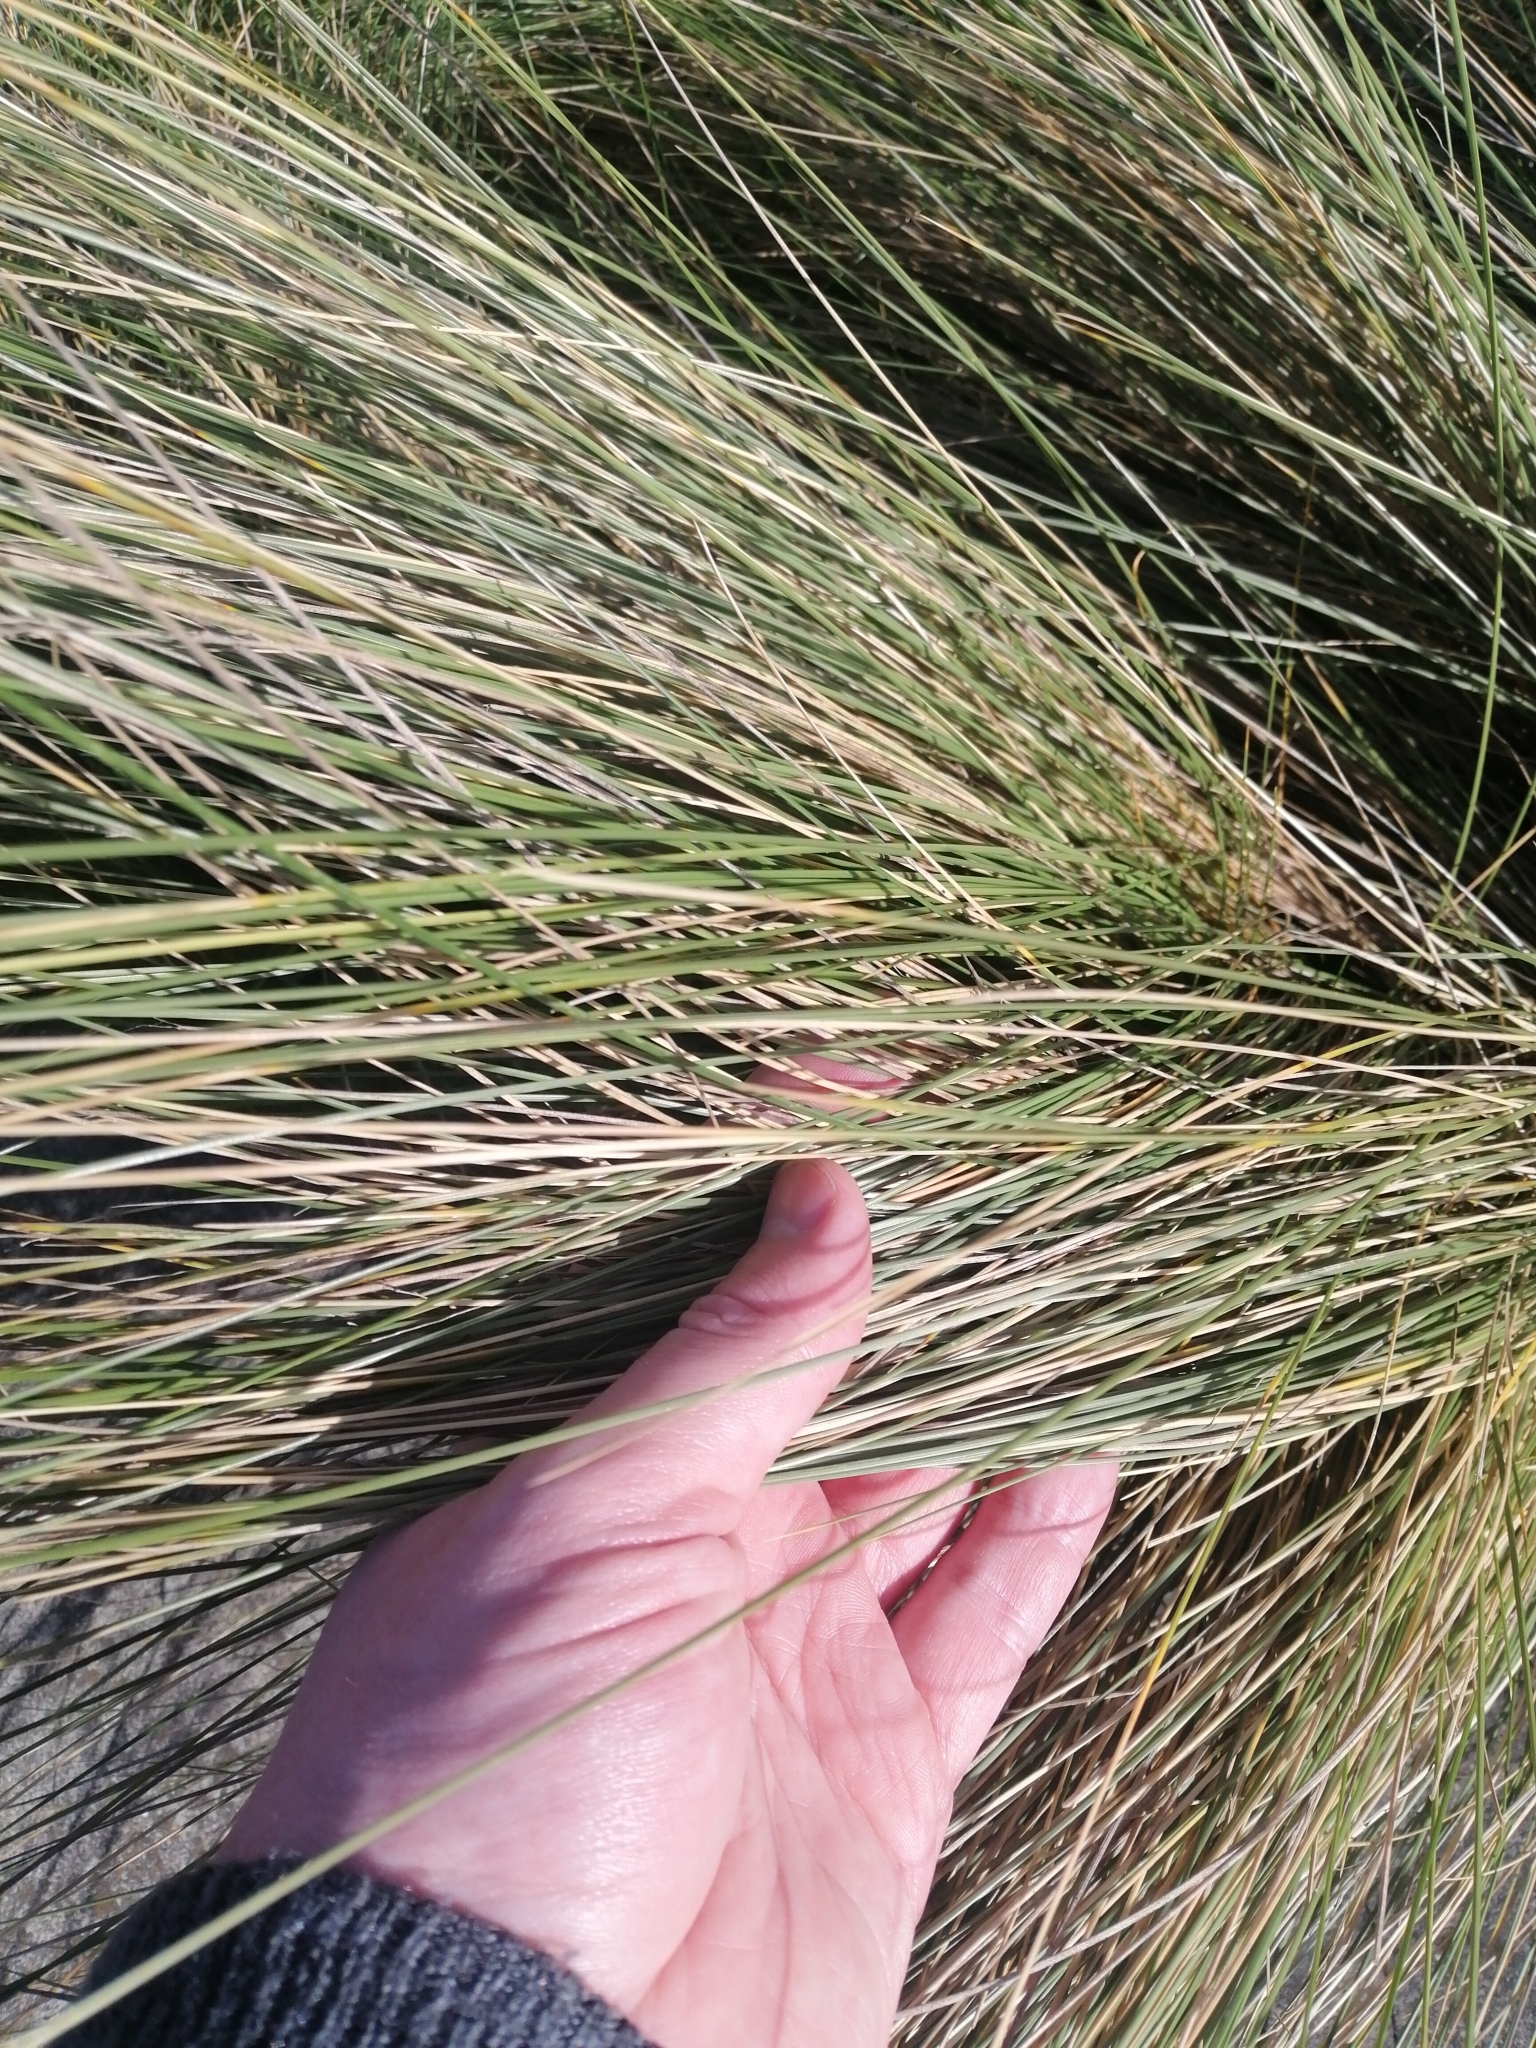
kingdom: Plantae
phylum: Tracheophyta
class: Liliopsida
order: Poales
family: Cyperaceae
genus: Machaerina
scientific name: Machaerina juncea
